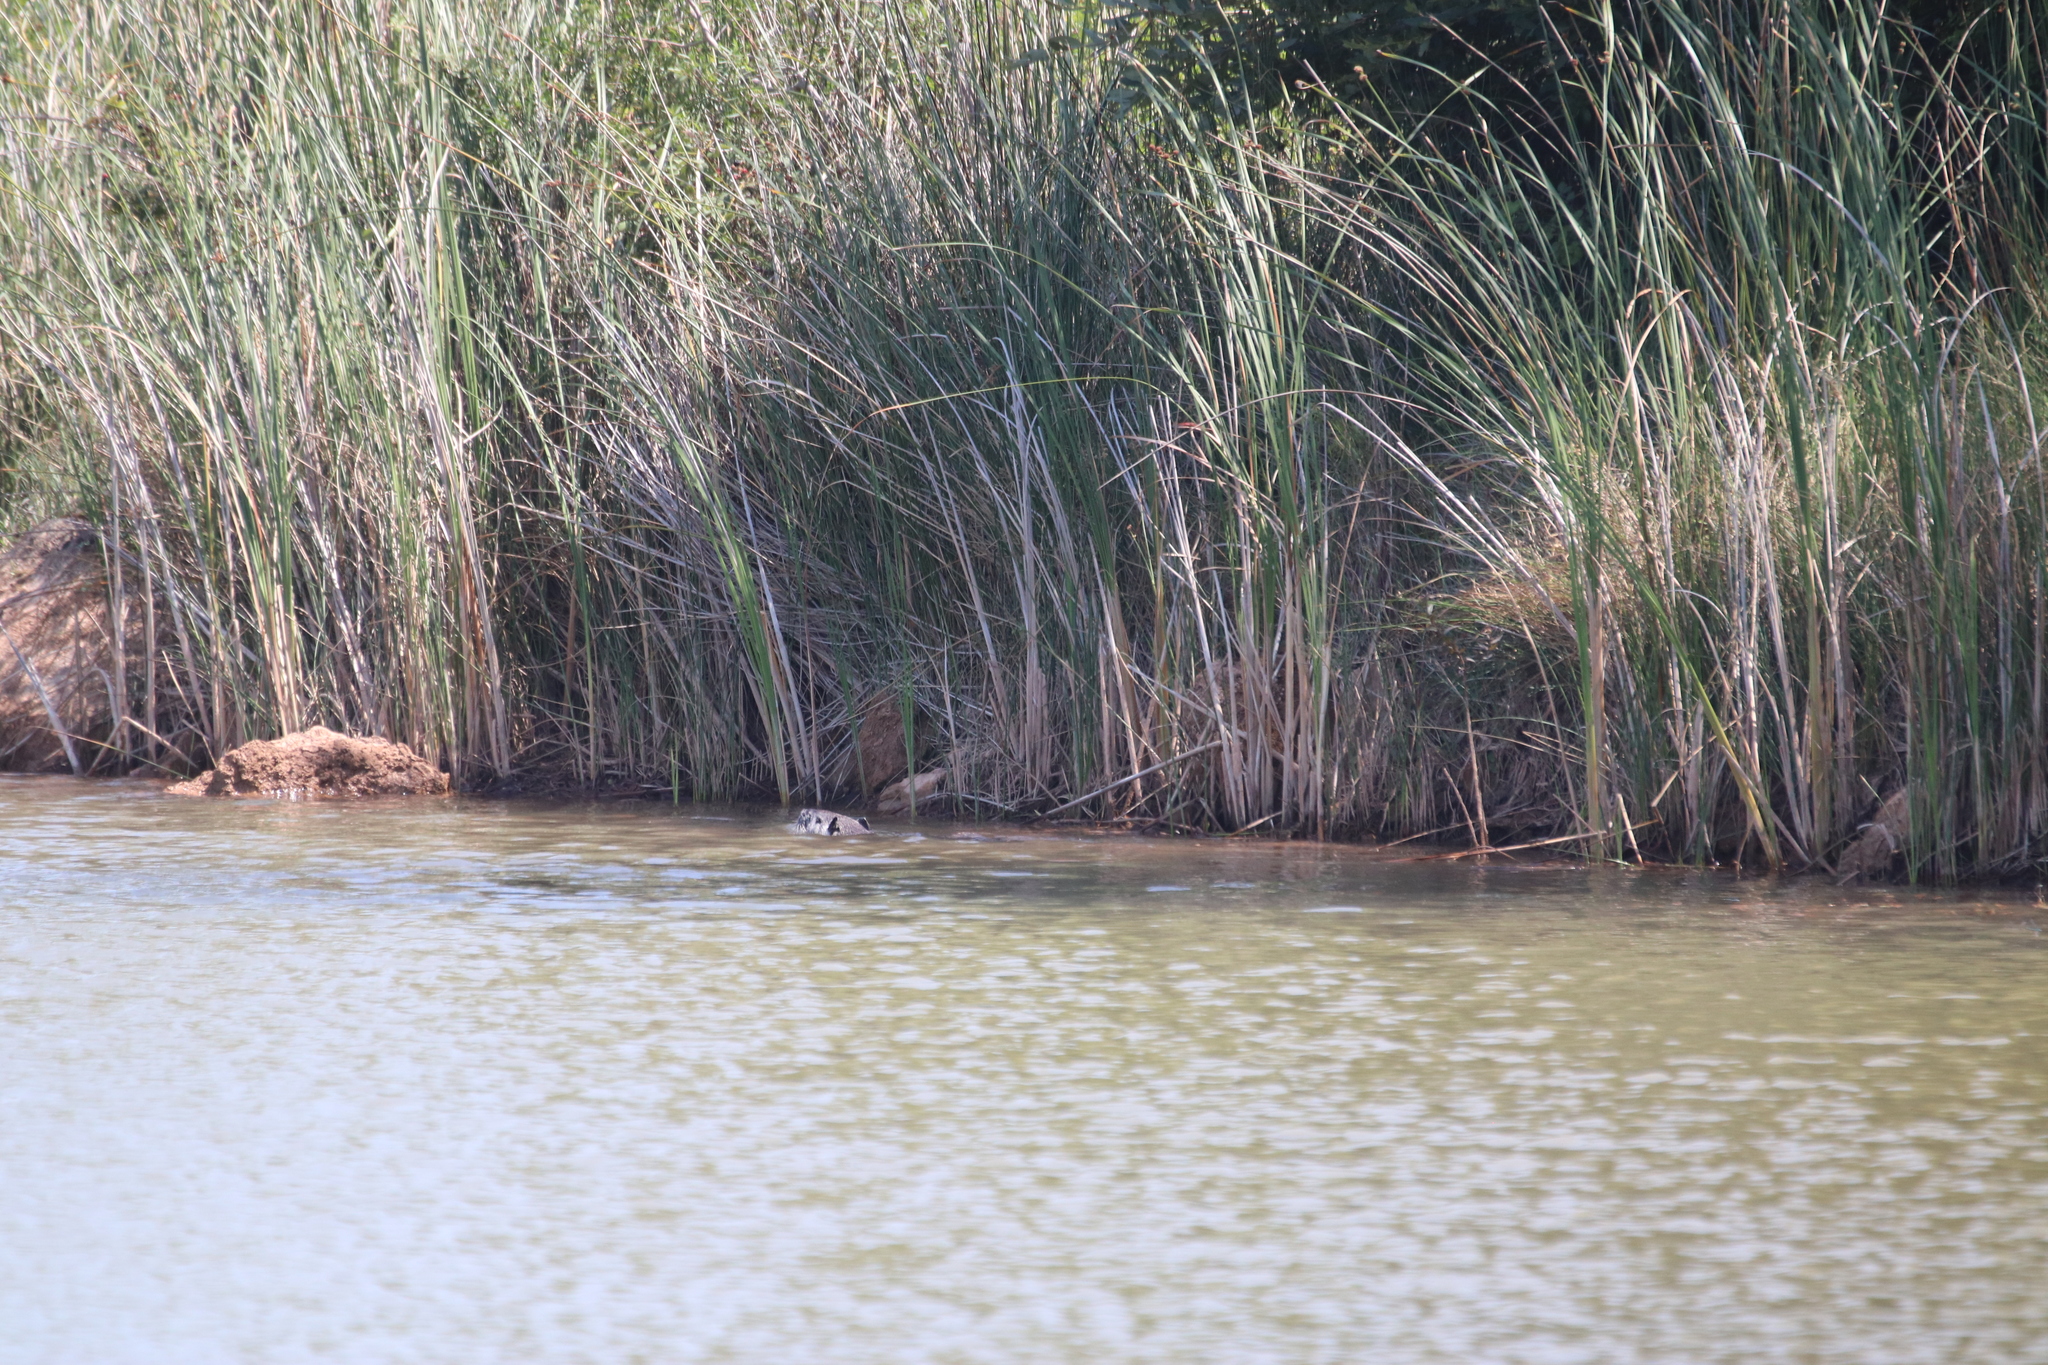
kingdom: Animalia
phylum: Chordata
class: Mammalia
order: Rodentia
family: Myocastoridae
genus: Myocastor
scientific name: Myocastor coypus
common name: Coypu
